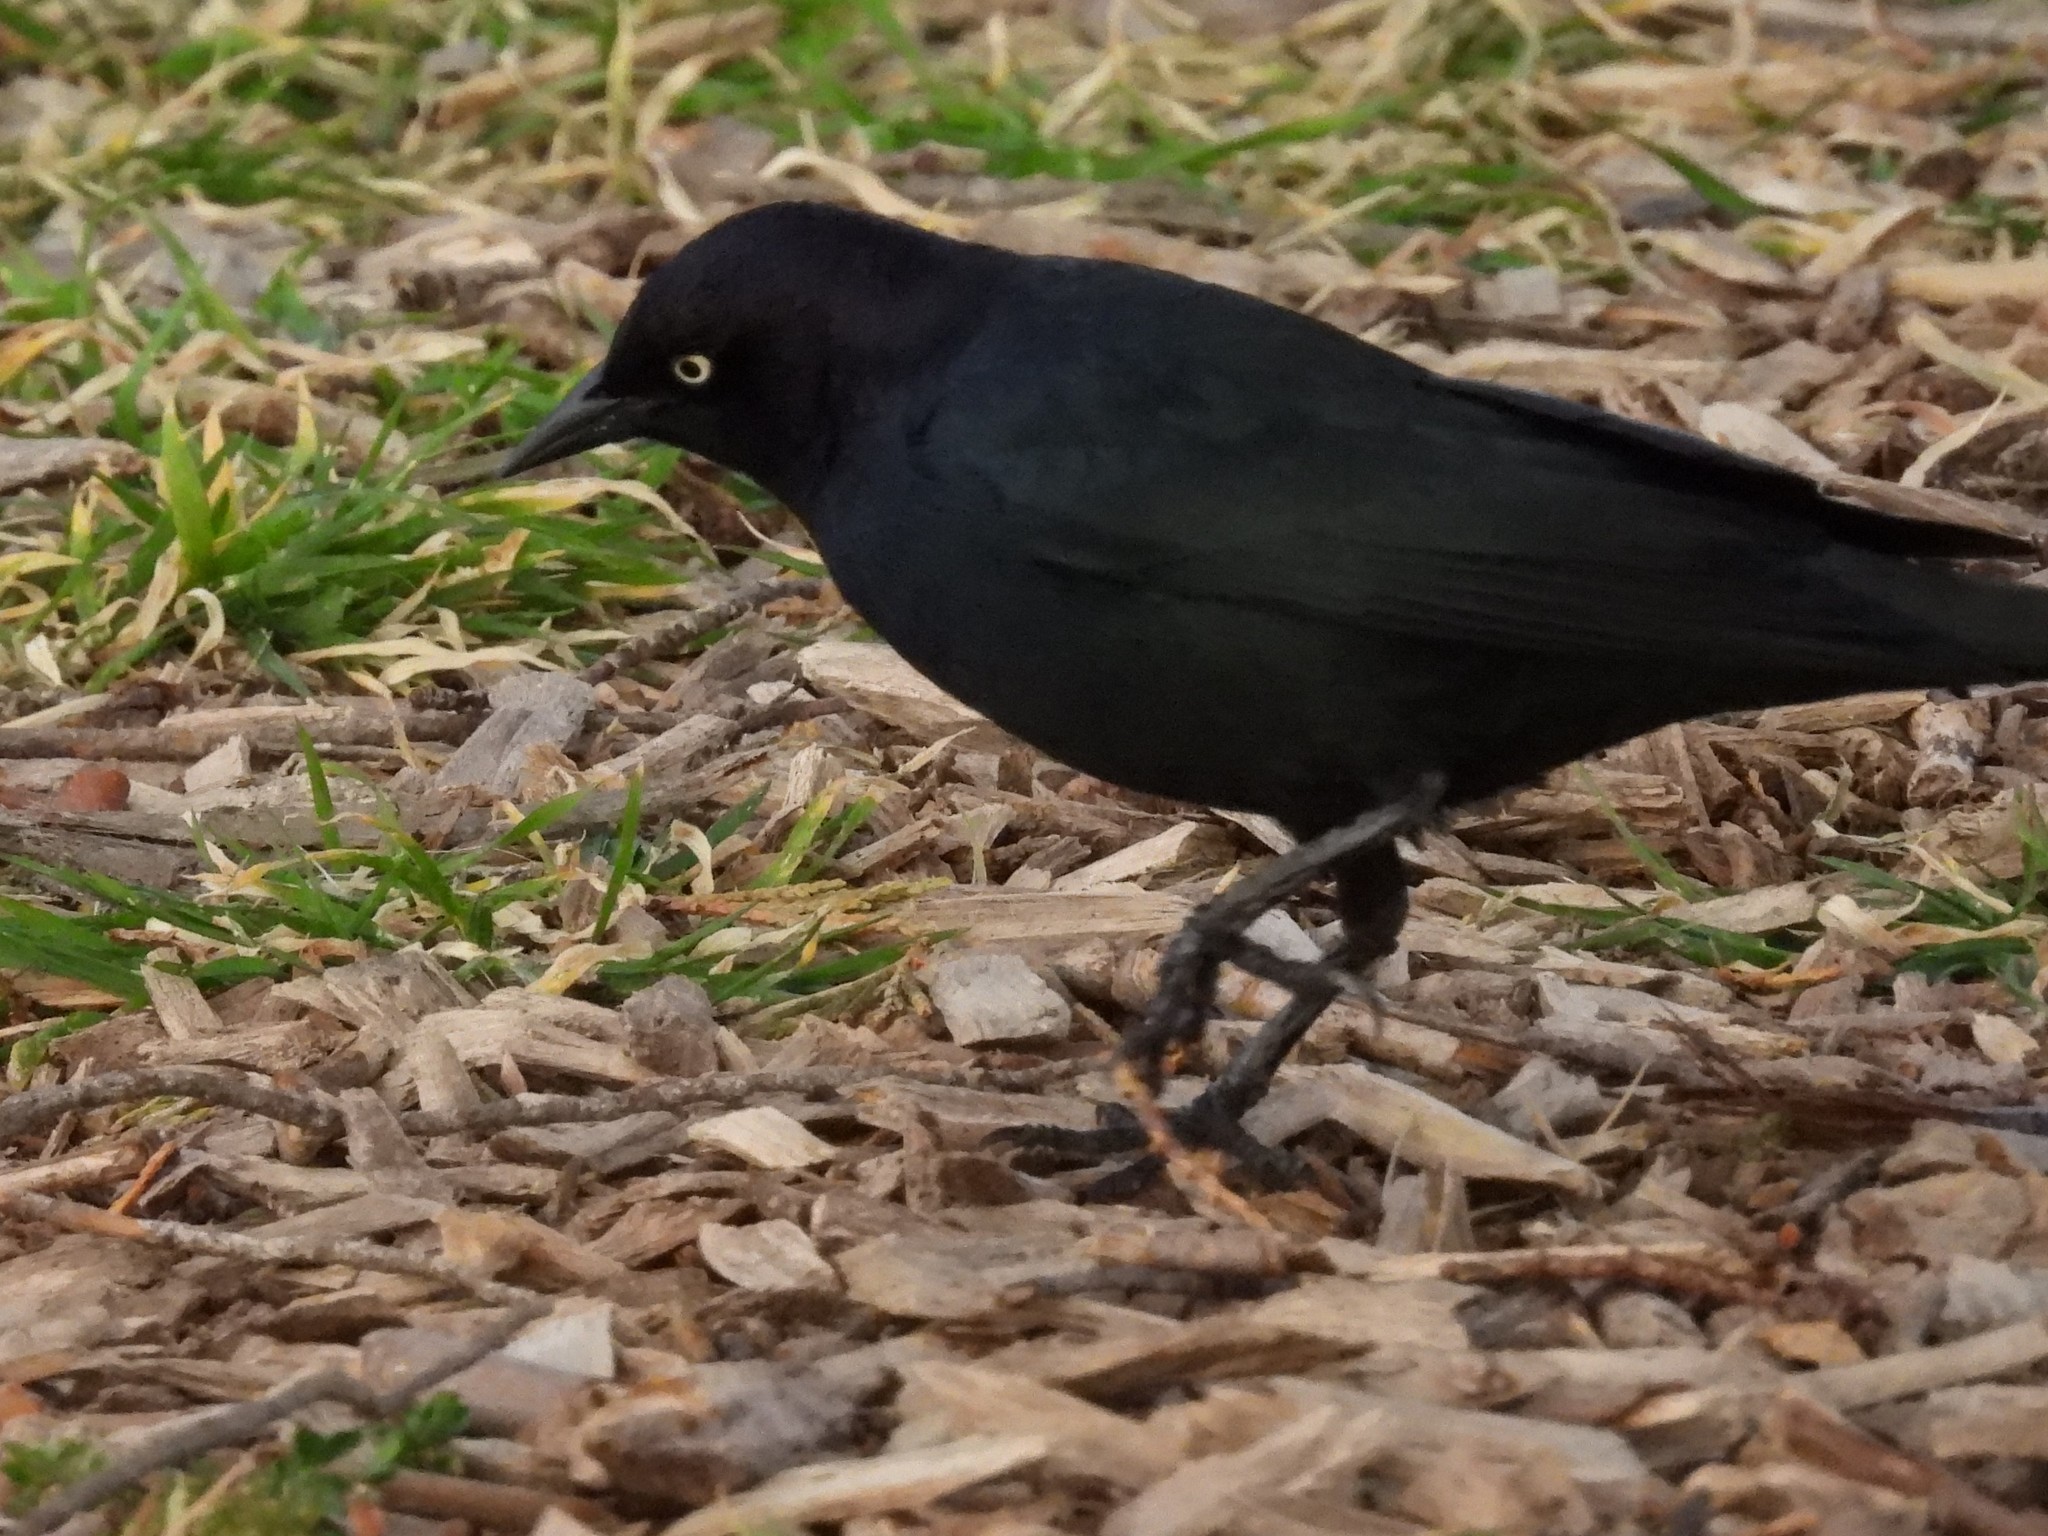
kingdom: Animalia
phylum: Chordata
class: Aves
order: Passeriformes
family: Icteridae
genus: Euphagus
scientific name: Euphagus cyanocephalus
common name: Brewer's blackbird
